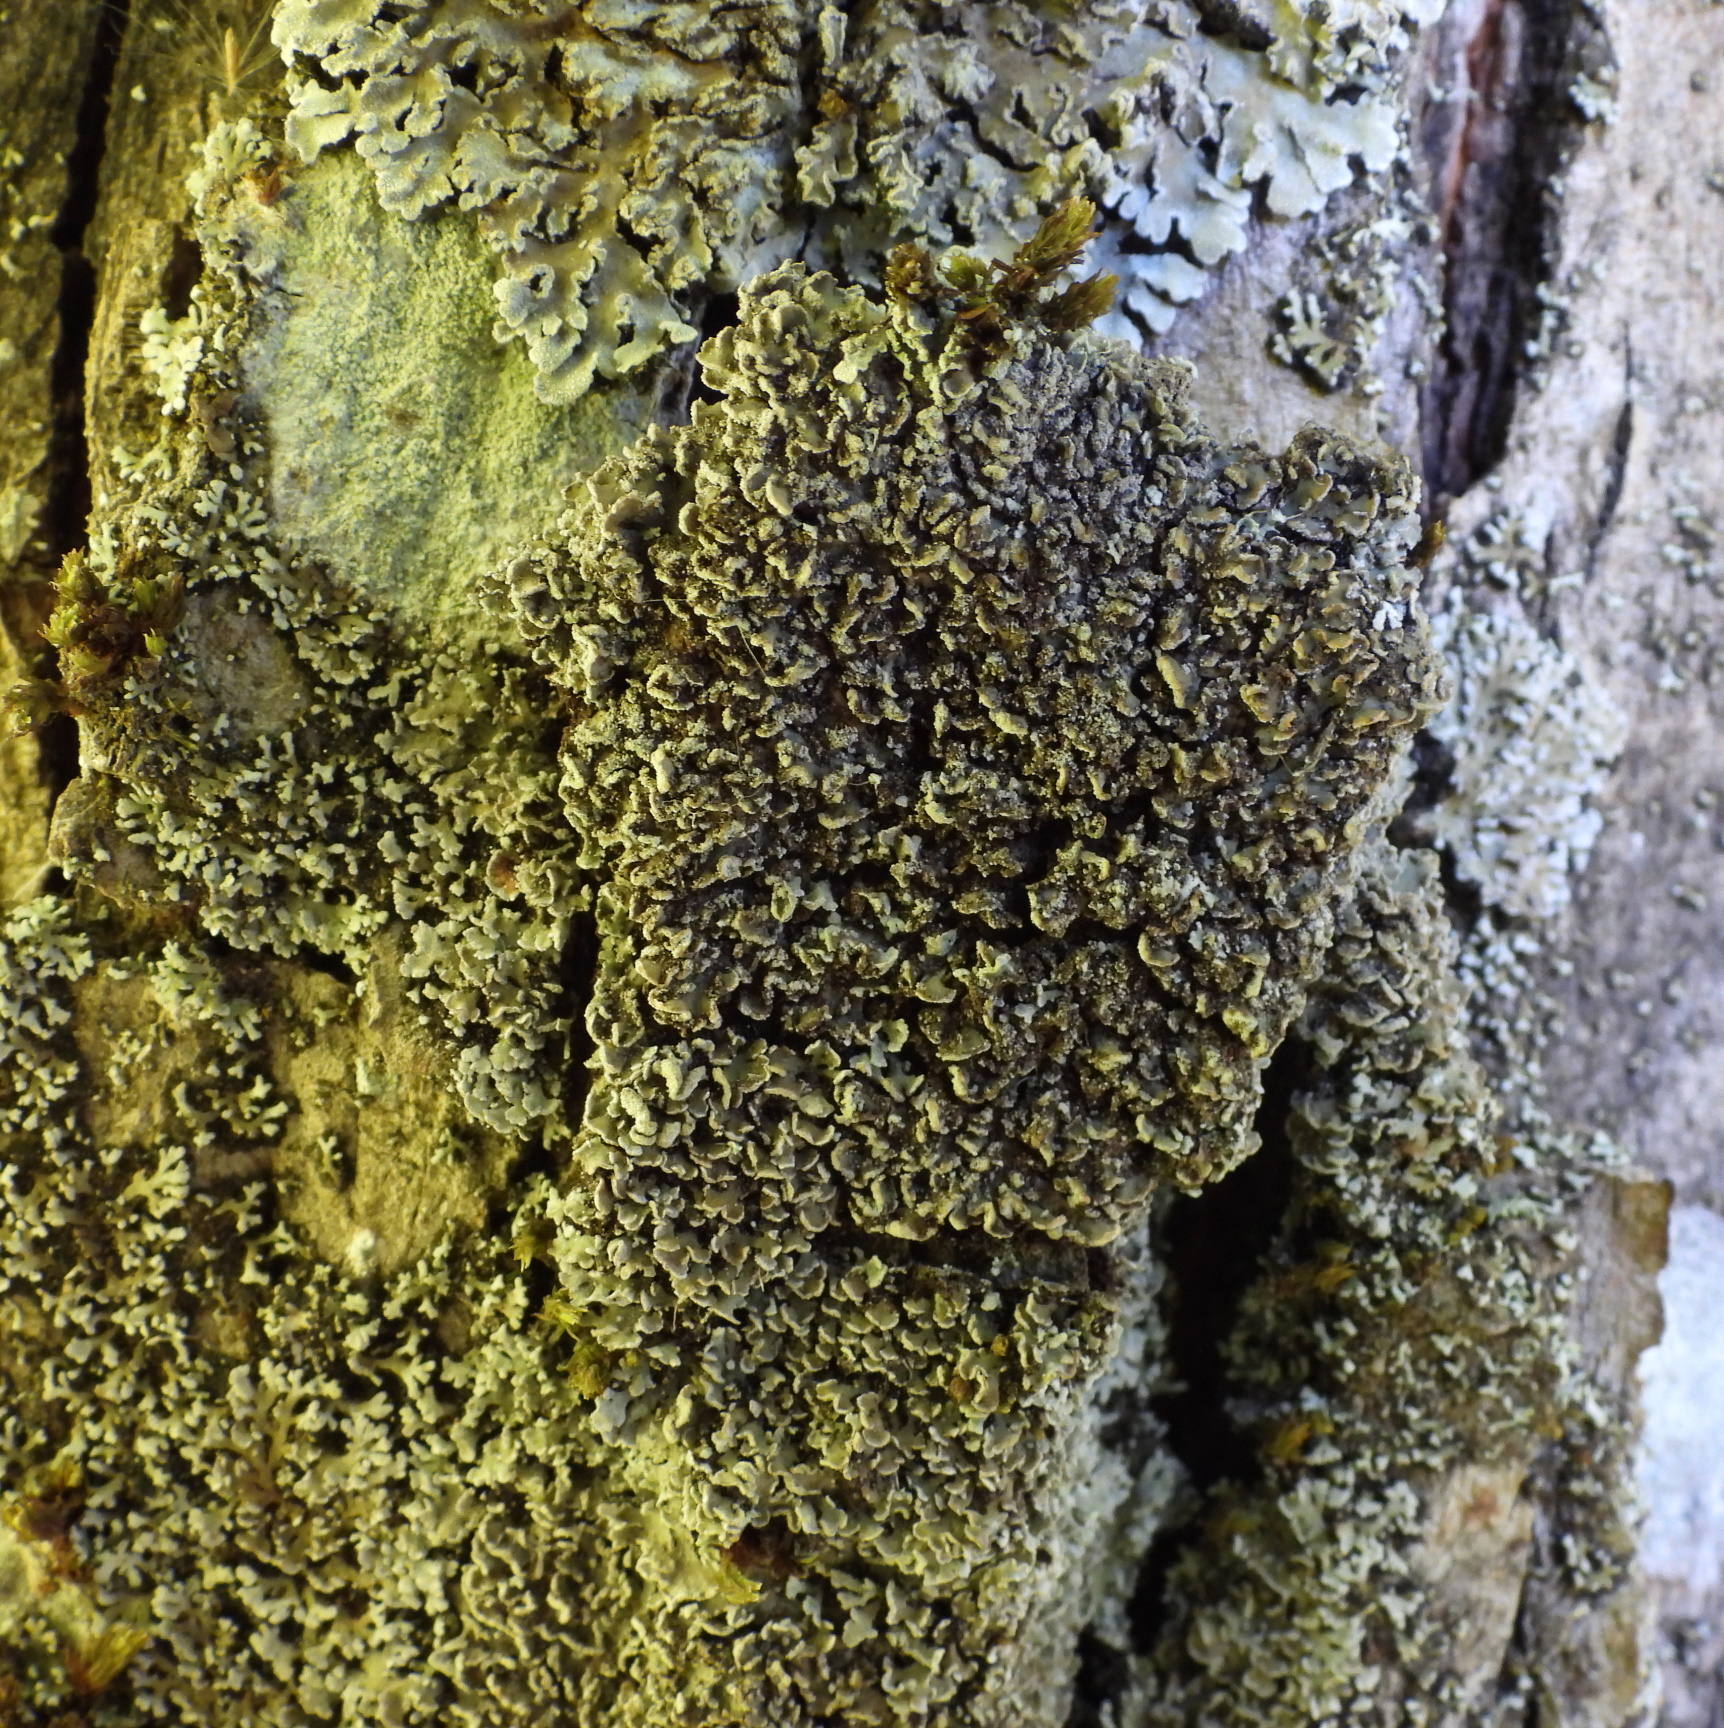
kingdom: Fungi
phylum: Ascomycota
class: Lecanoromycetes
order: Caliciales
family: Physciaceae
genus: Physconia
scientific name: Physconia perisidiosa
